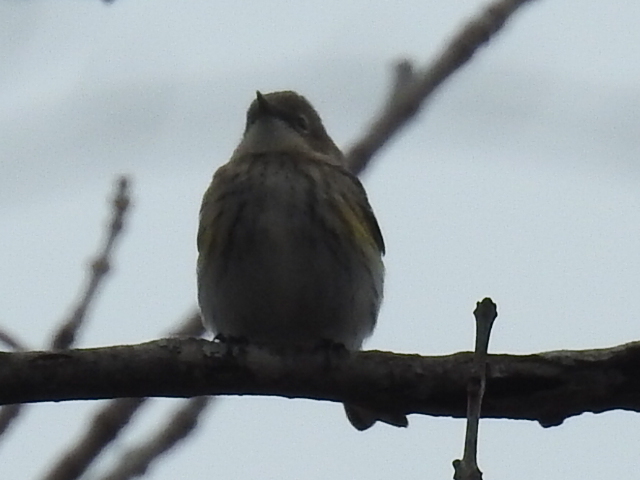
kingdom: Animalia
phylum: Chordata
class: Aves
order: Passeriformes
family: Parulidae
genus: Setophaga
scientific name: Setophaga coronata
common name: Myrtle warbler
